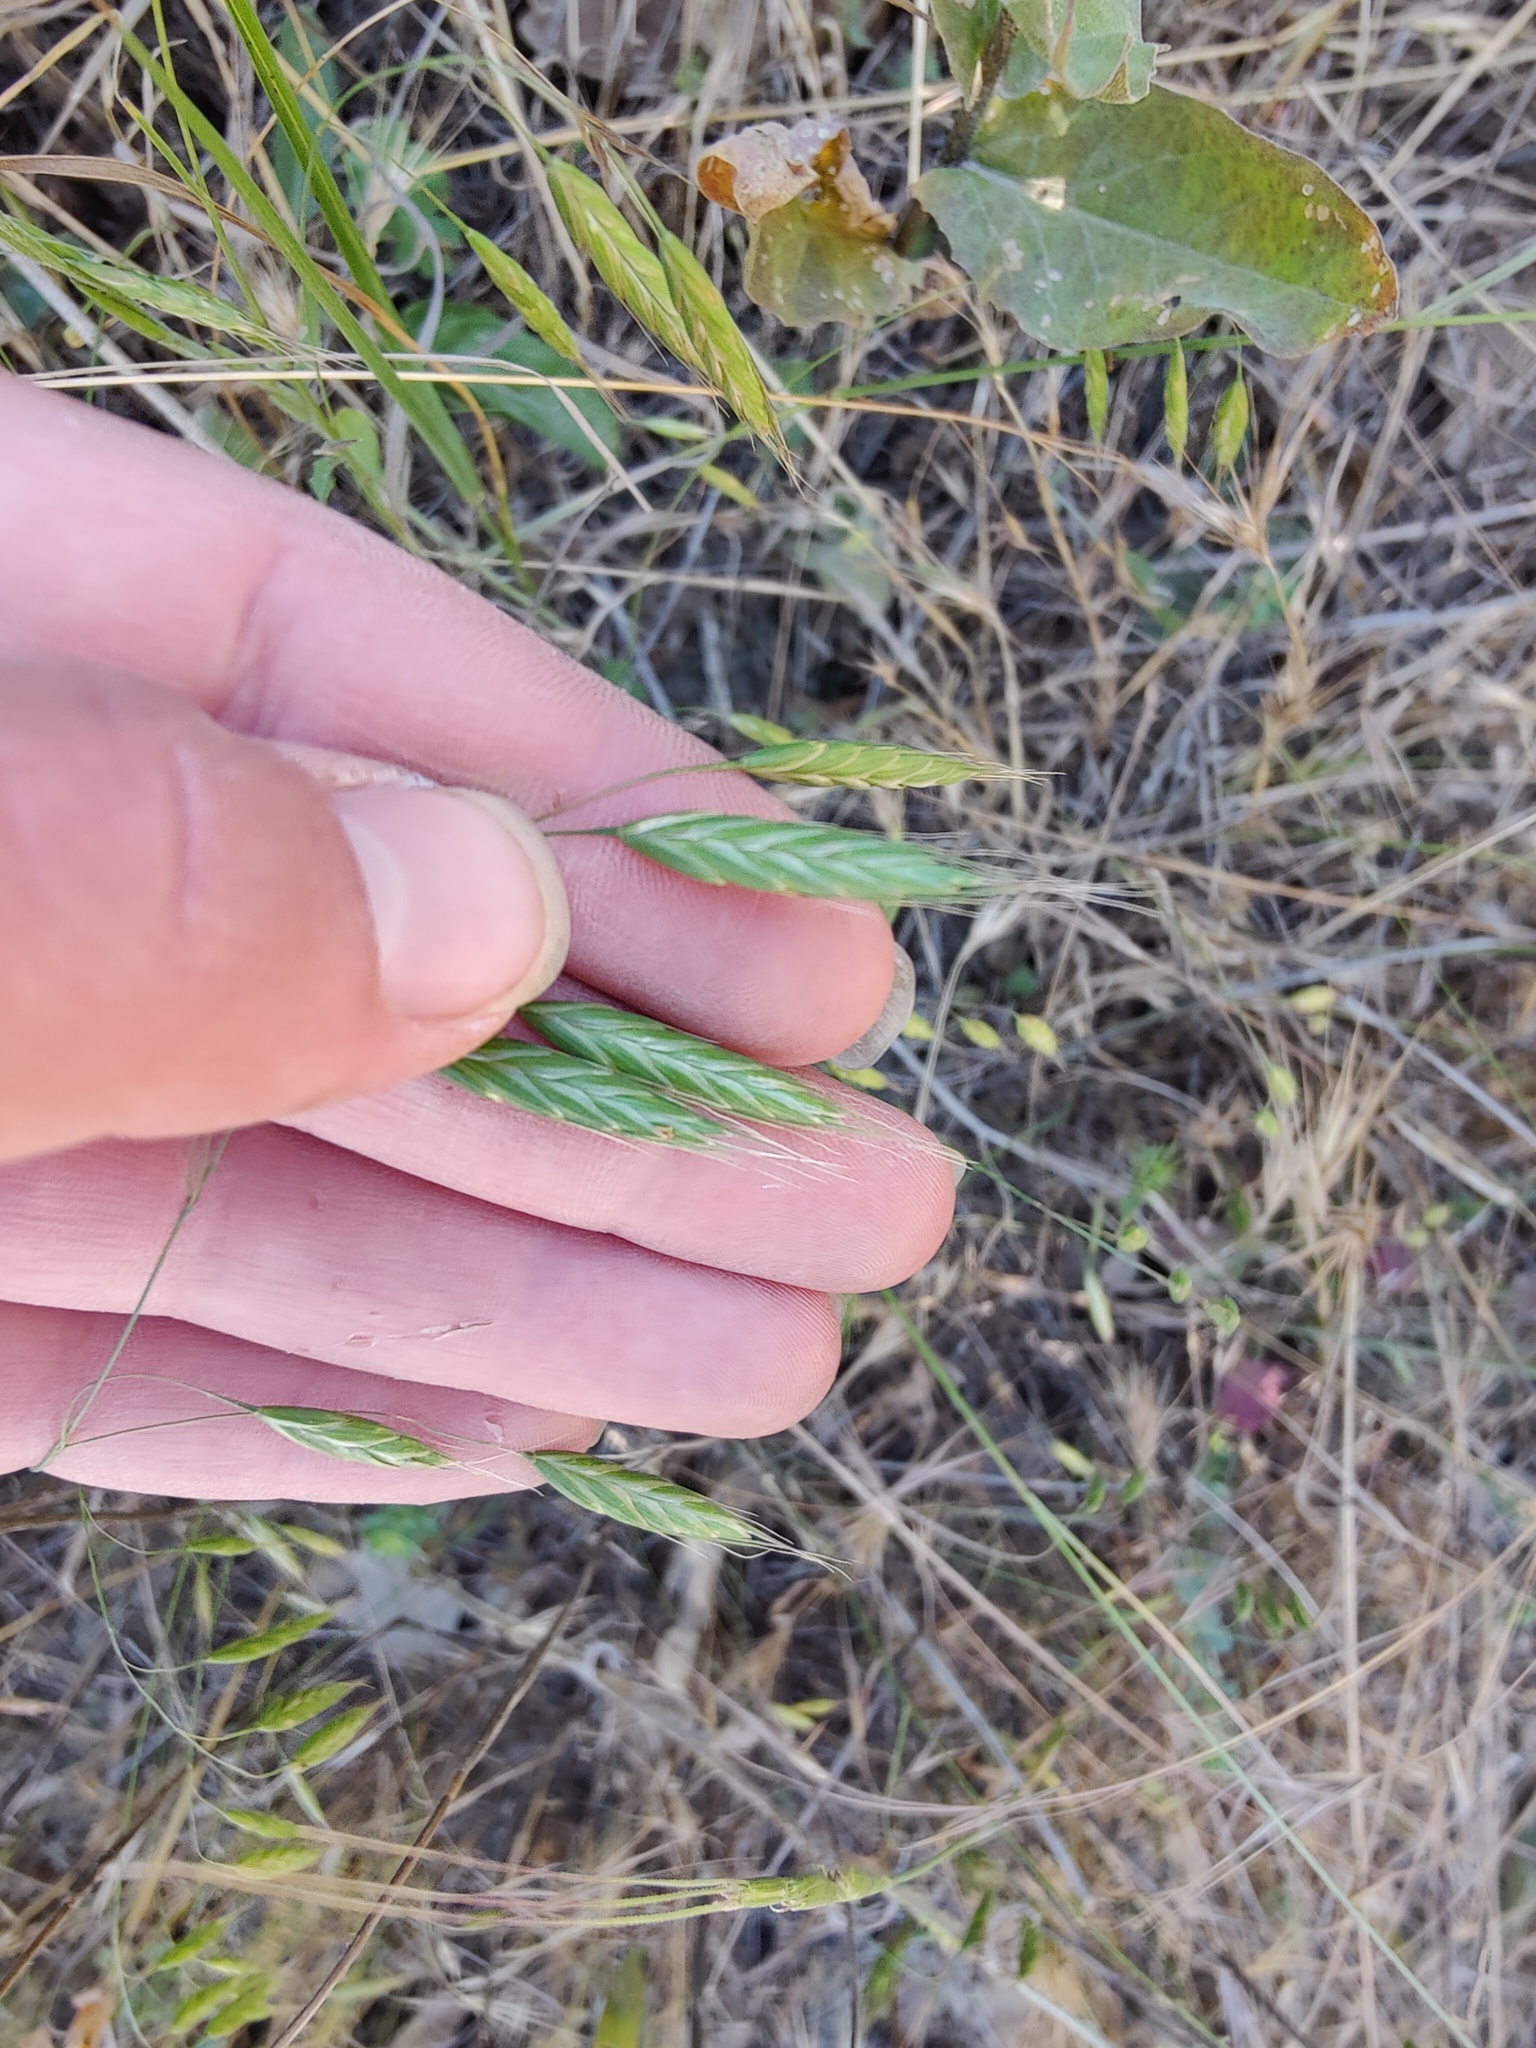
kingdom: Plantae
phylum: Tracheophyta
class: Liliopsida
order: Poales
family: Poaceae
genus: Bromus
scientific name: Bromus squarrosus
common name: Corn brome
